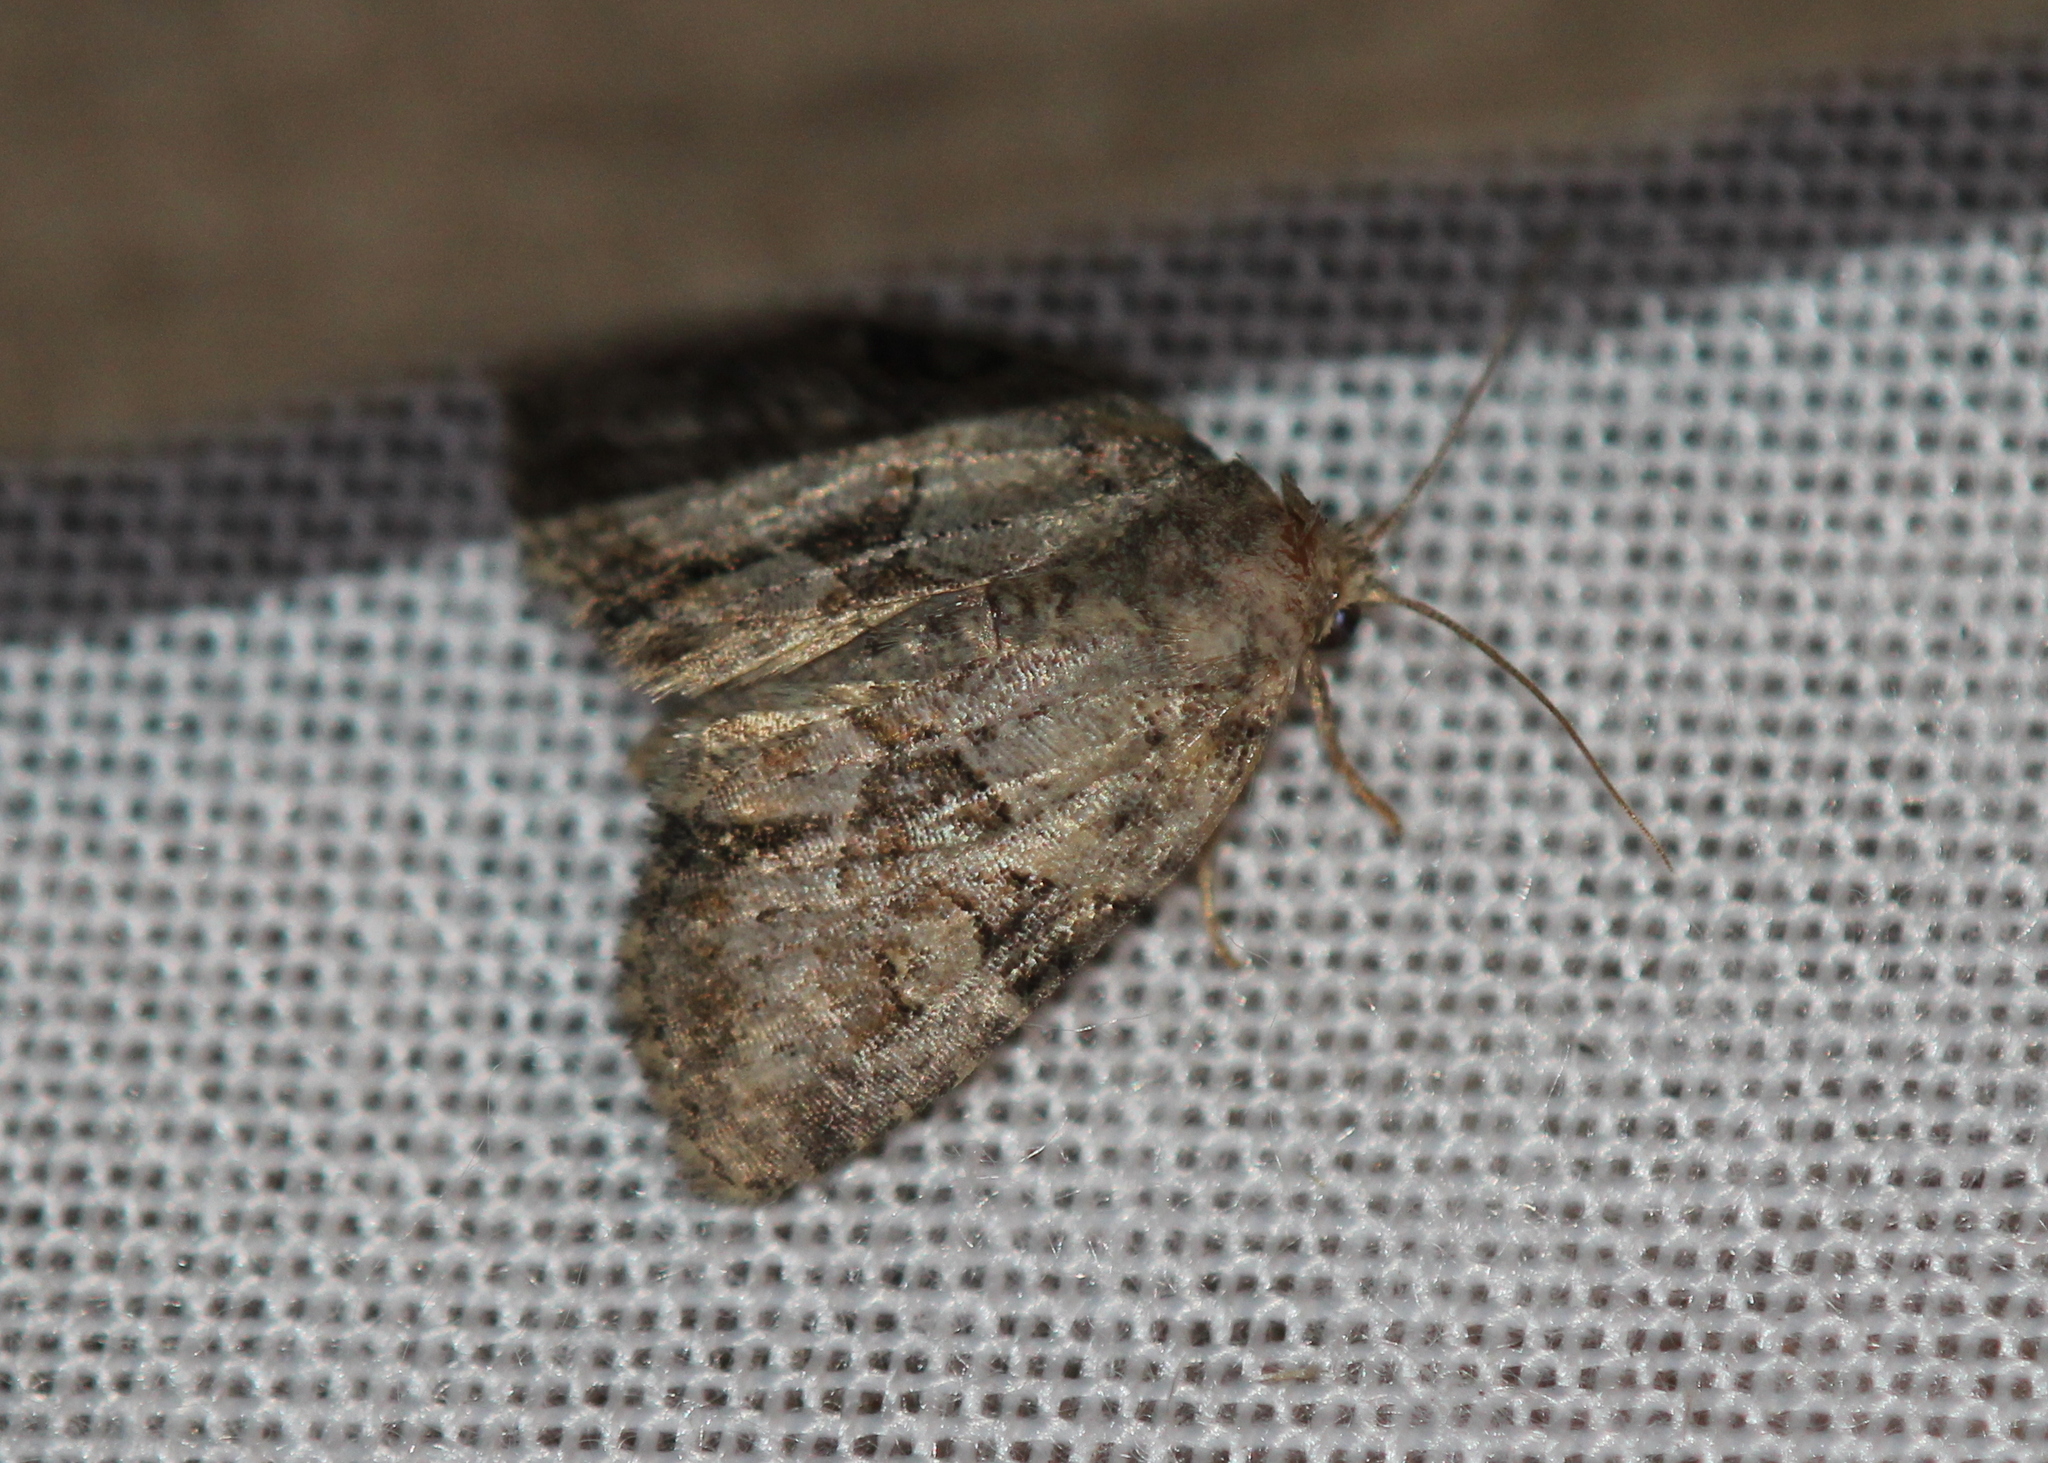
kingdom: Animalia
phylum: Arthropoda
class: Insecta
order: Lepidoptera
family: Noctuidae
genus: Neoligia
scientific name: Neoligia exhausta
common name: Exhausted brocade
